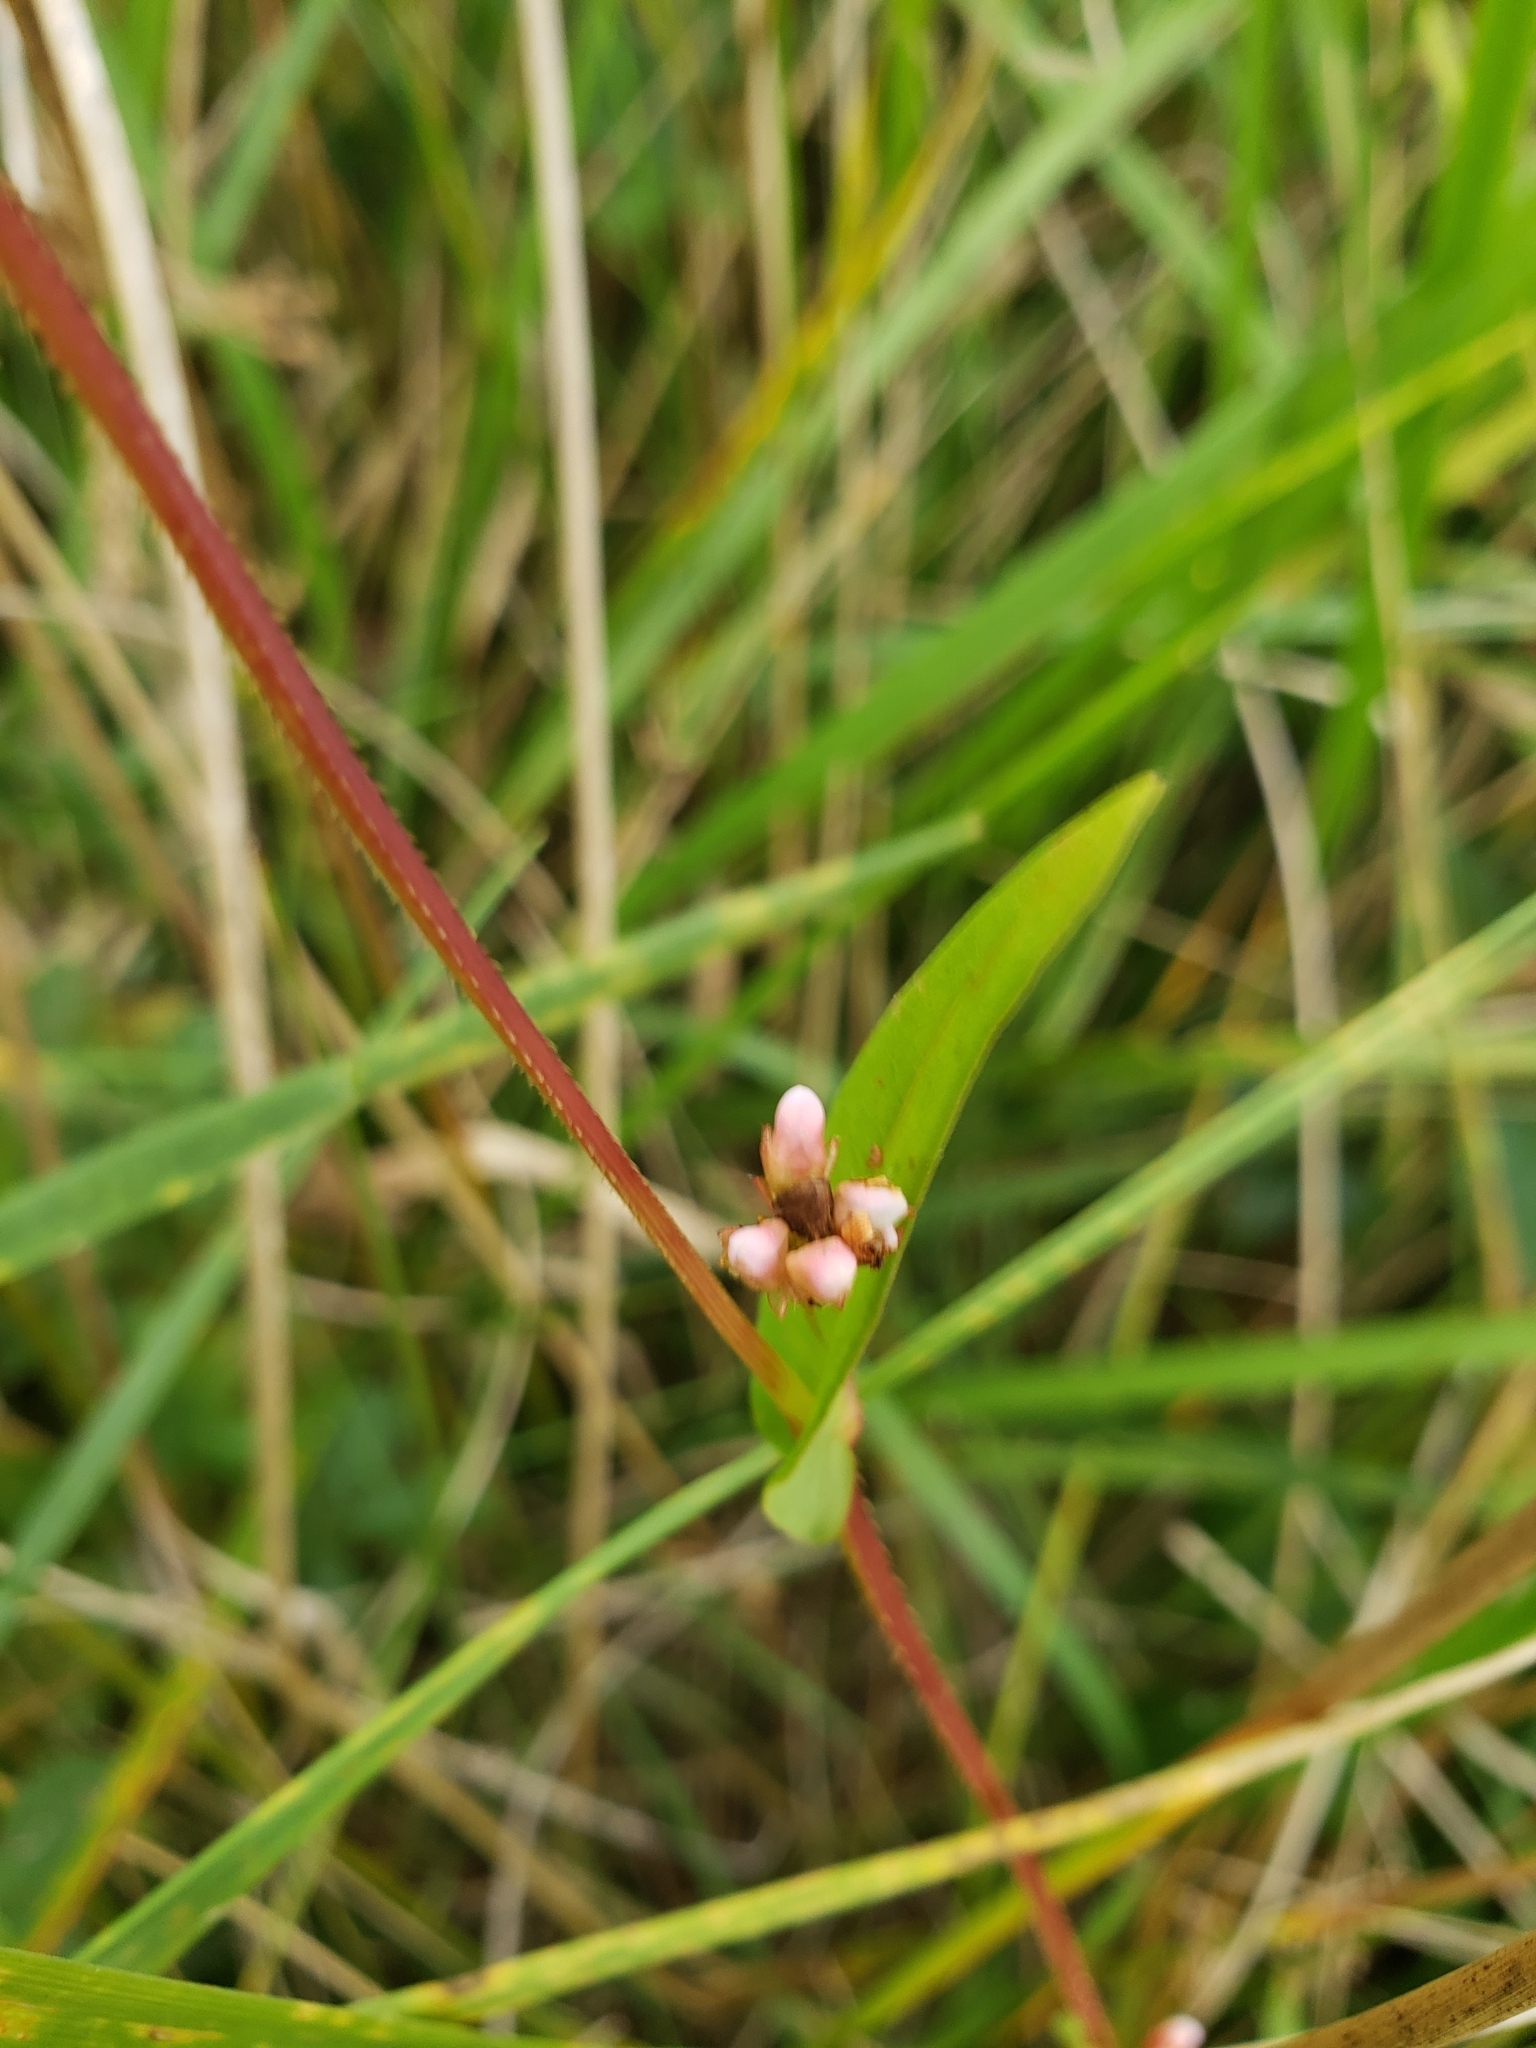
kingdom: Plantae
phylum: Tracheophyta
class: Magnoliopsida
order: Caryophyllales
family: Polygonaceae
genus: Persicaria
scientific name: Persicaria sagittata
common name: American tearthumb
